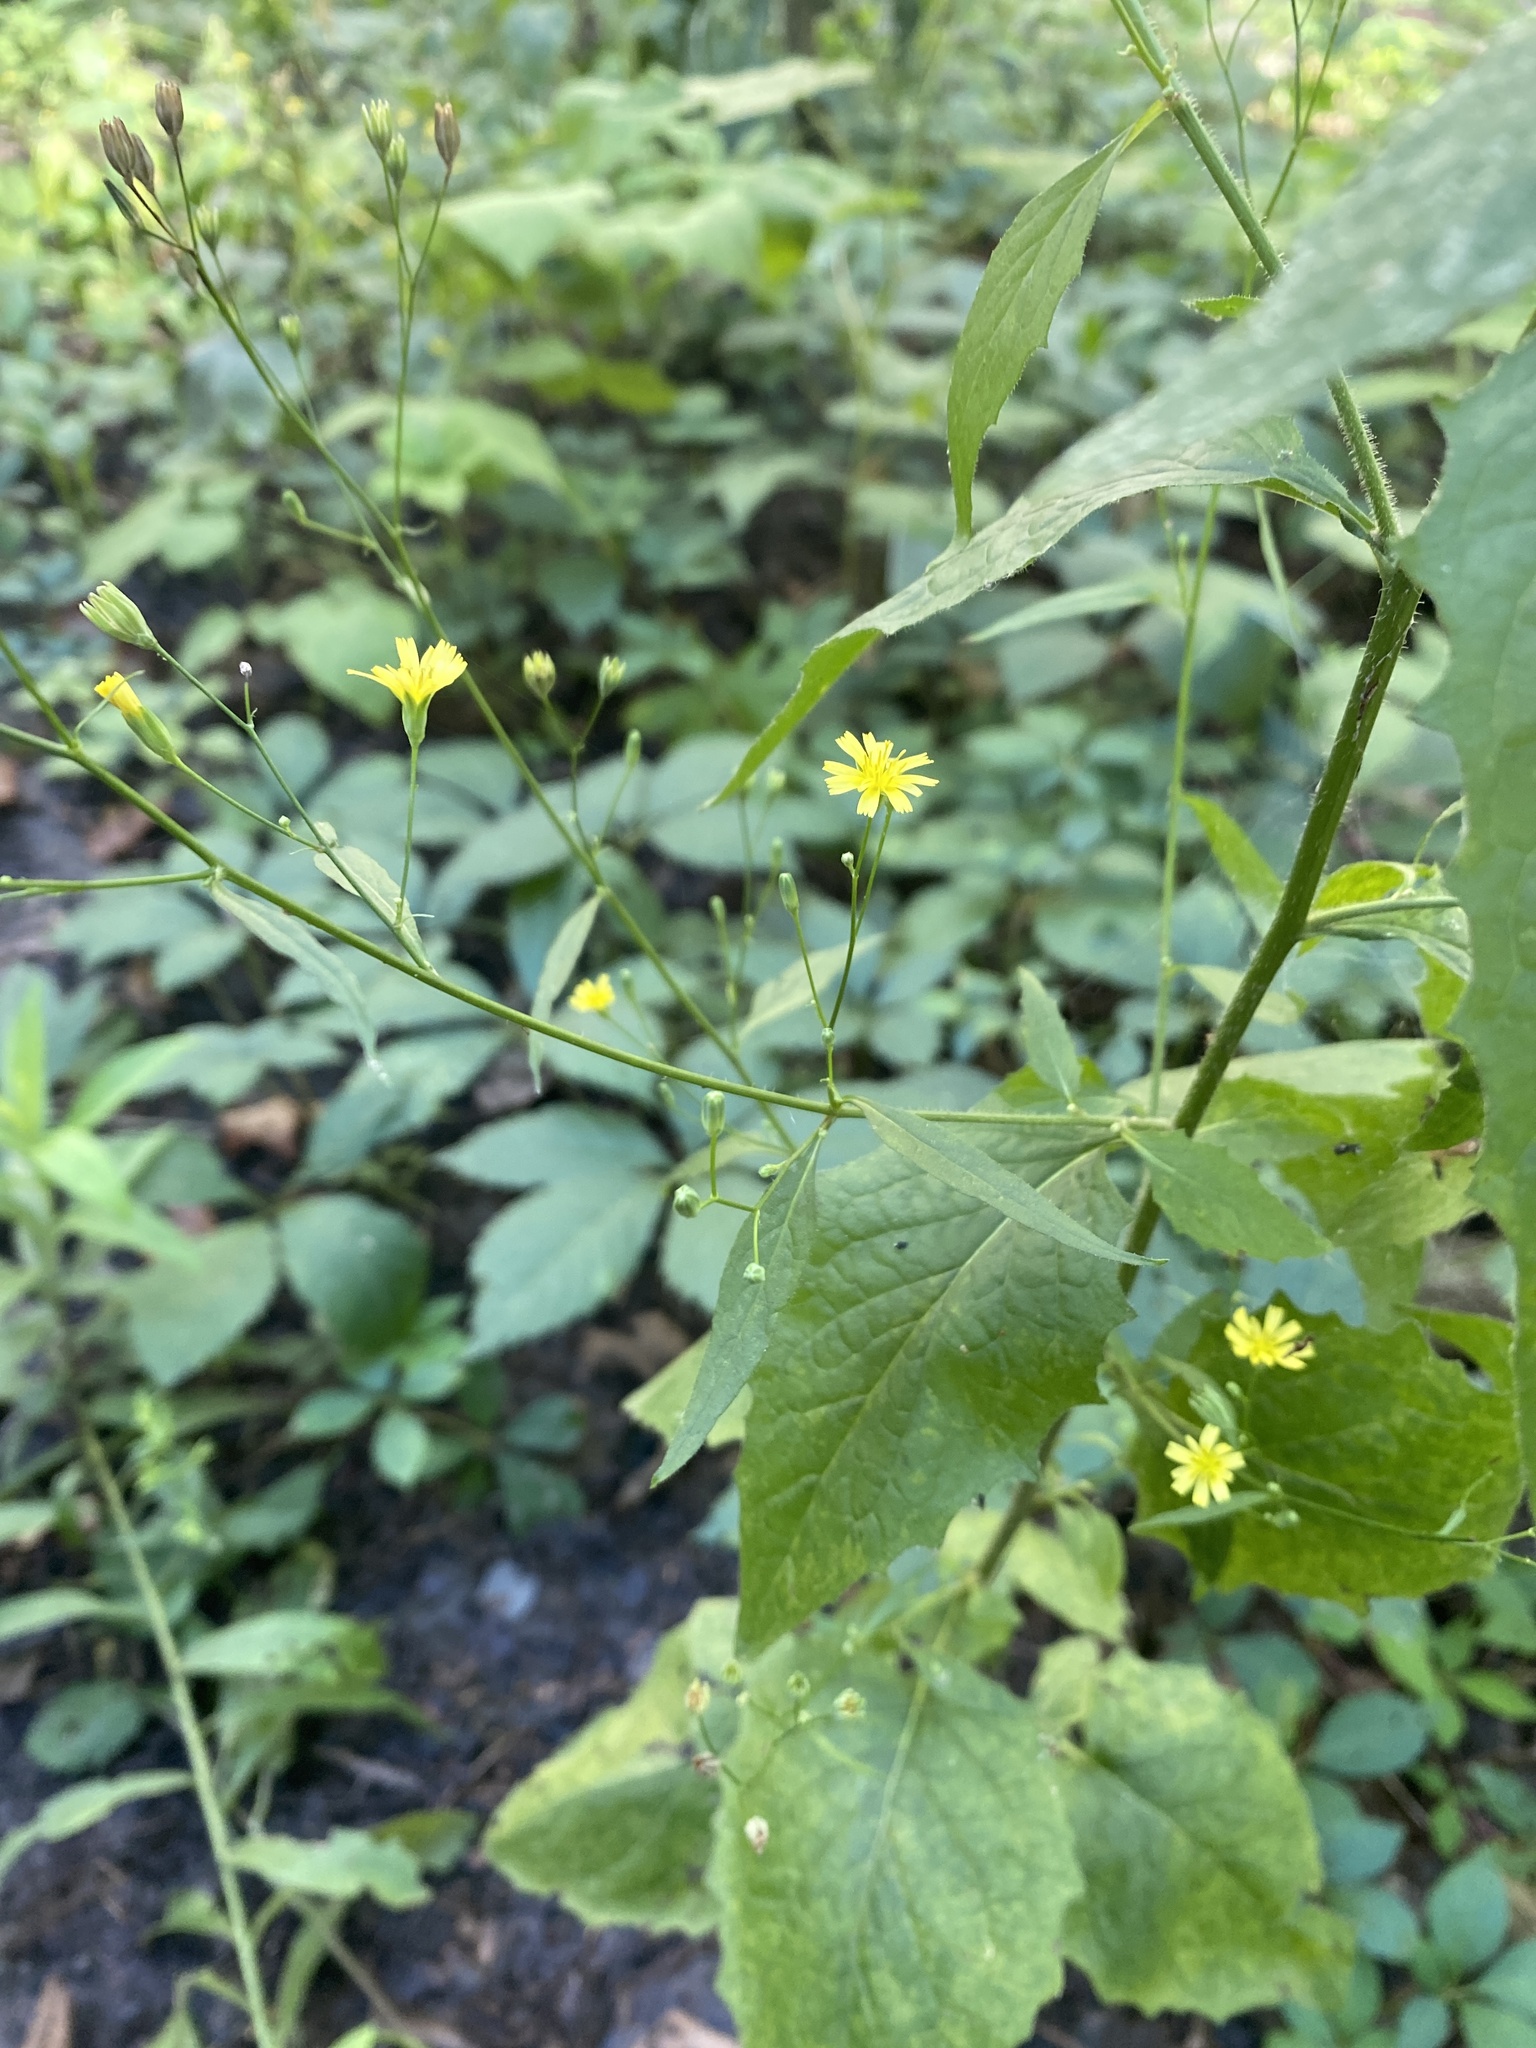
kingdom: Plantae
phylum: Tracheophyta
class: Magnoliopsida
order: Asterales
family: Asteraceae
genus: Lapsana
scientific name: Lapsana communis
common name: Nipplewort
